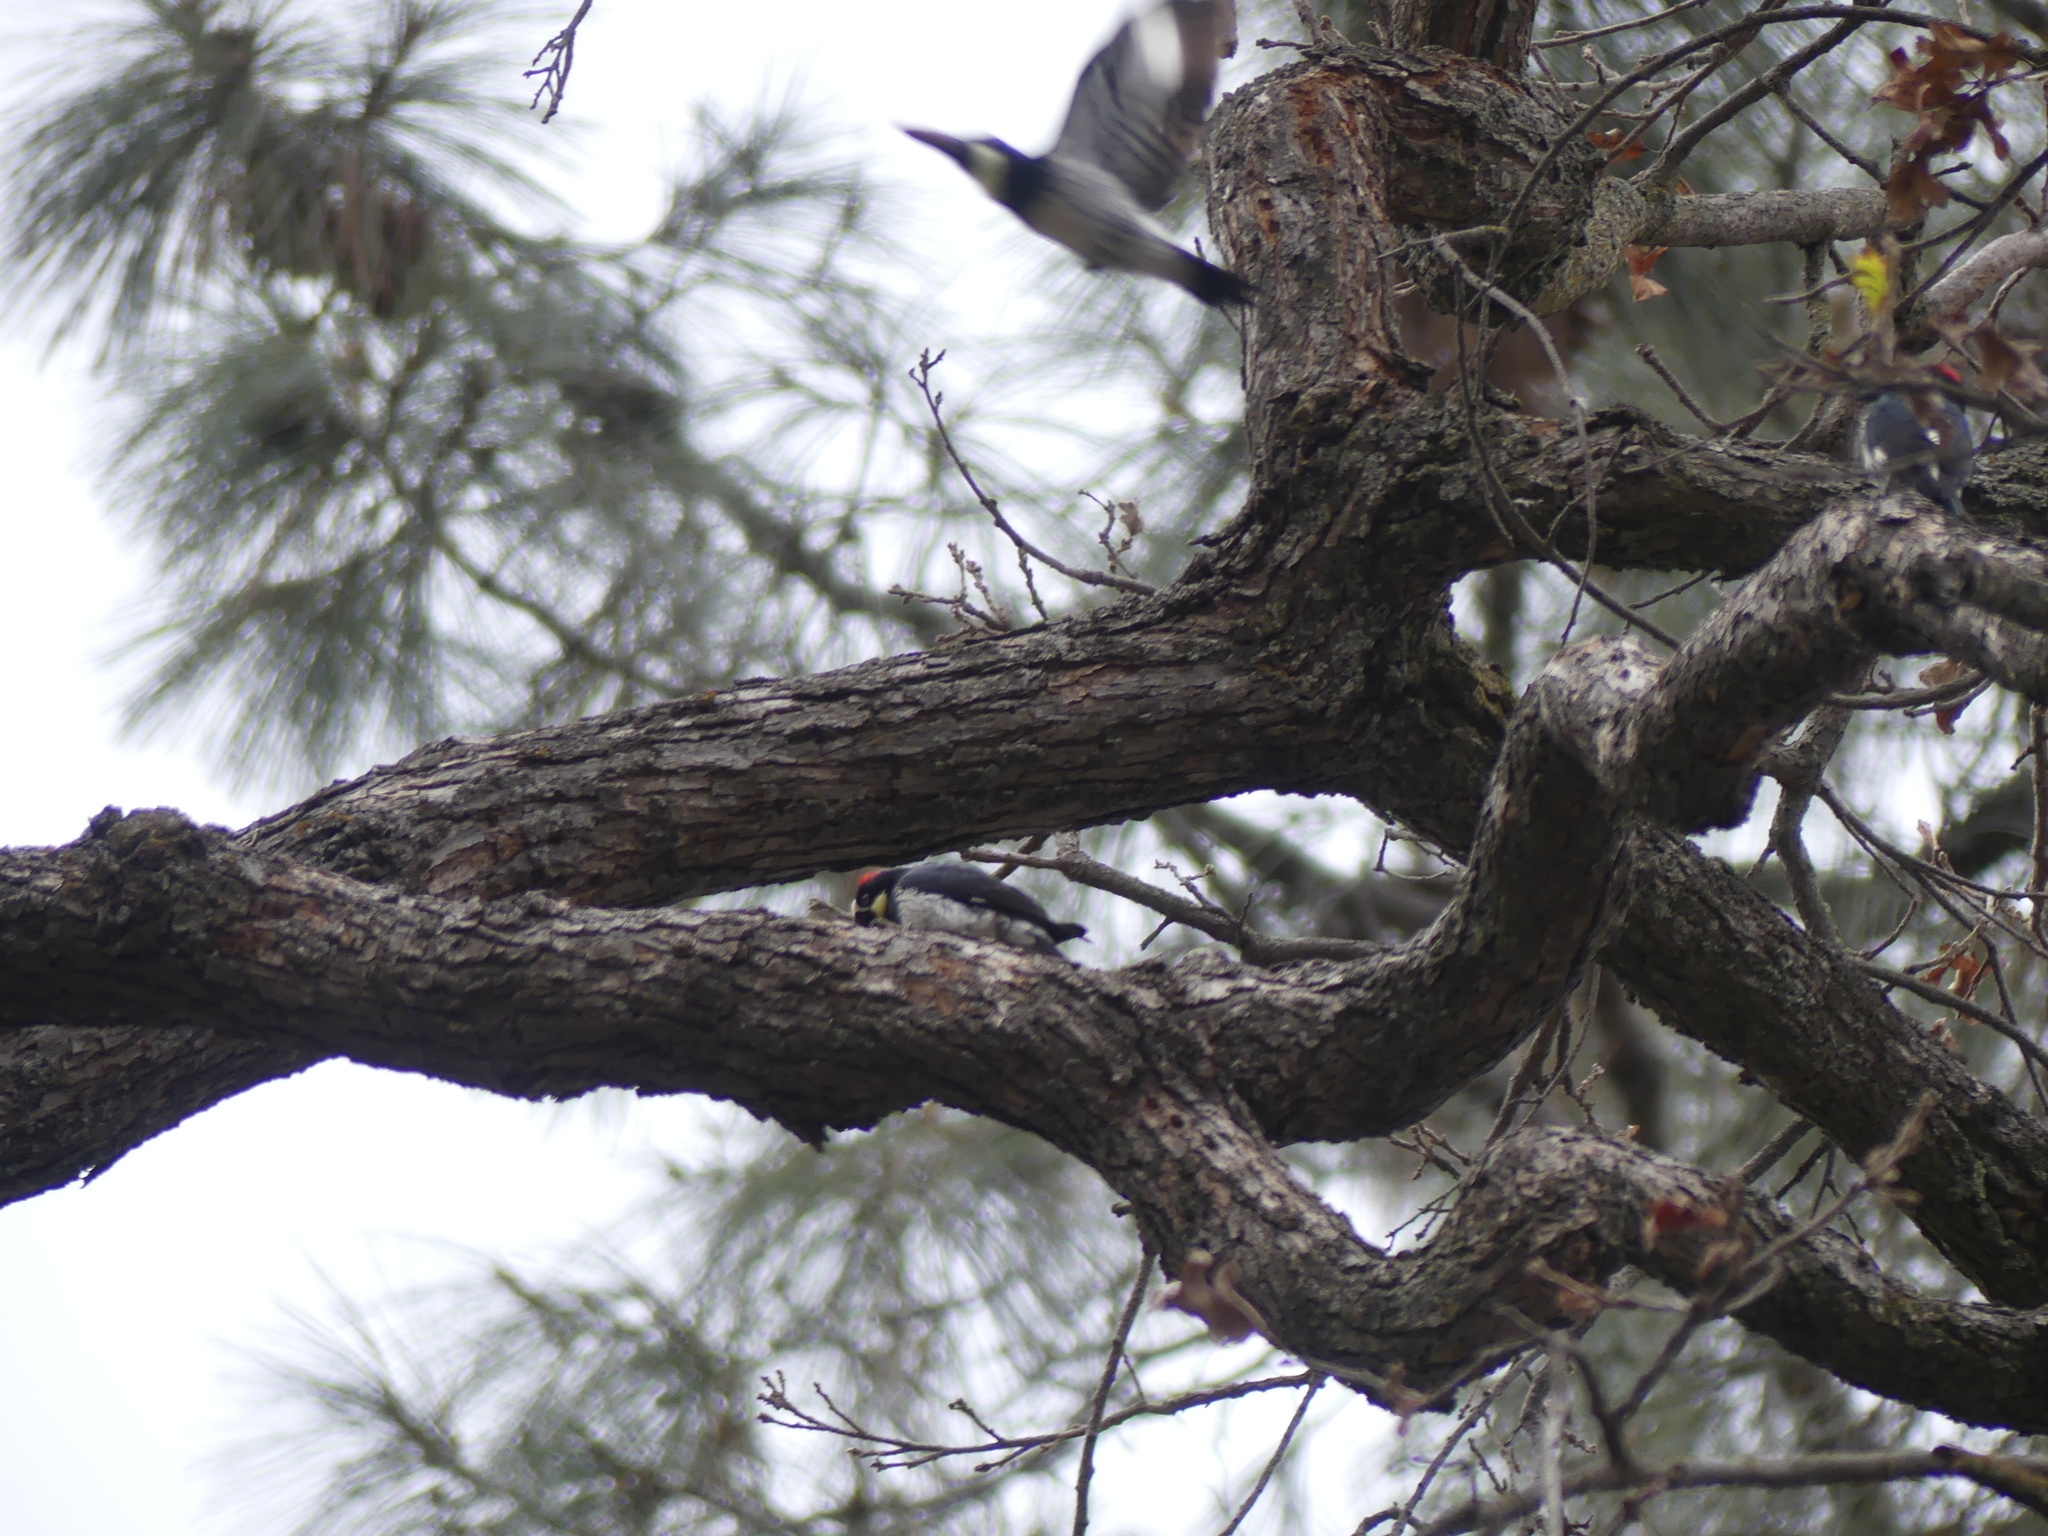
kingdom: Animalia
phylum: Chordata
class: Aves
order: Piciformes
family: Picidae
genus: Melanerpes
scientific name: Melanerpes formicivorus
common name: Acorn woodpecker
